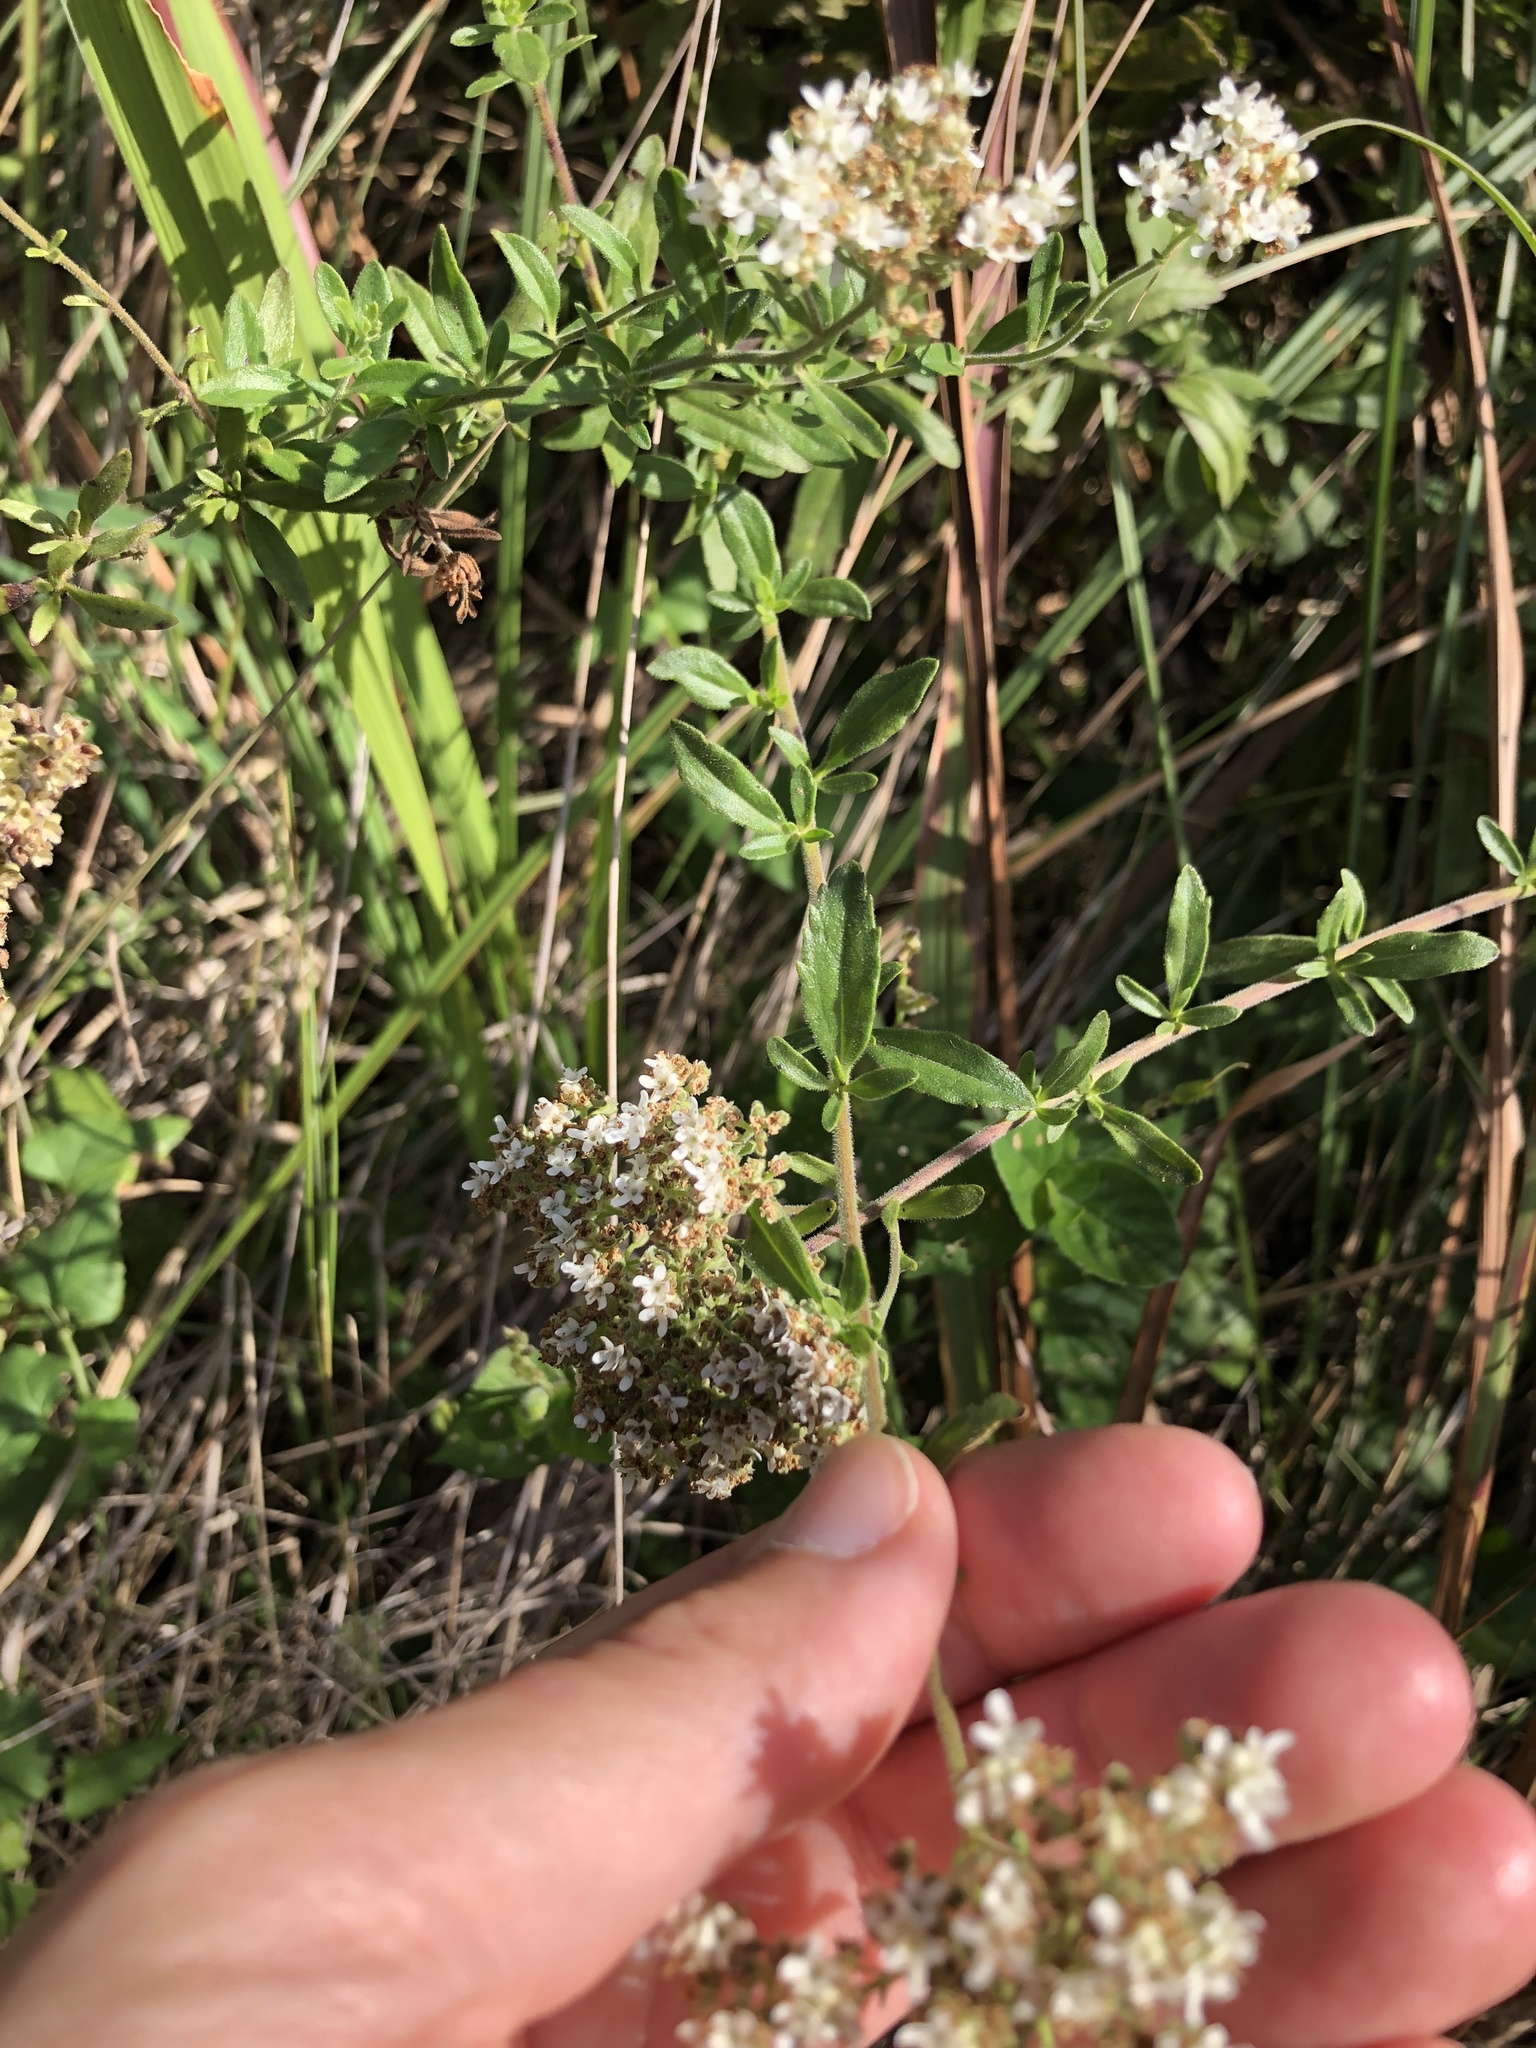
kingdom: Plantae
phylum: Tracheophyta
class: Magnoliopsida
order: Lamiales
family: Scrophulariaceae
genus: Selago
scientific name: Selago densiflora
